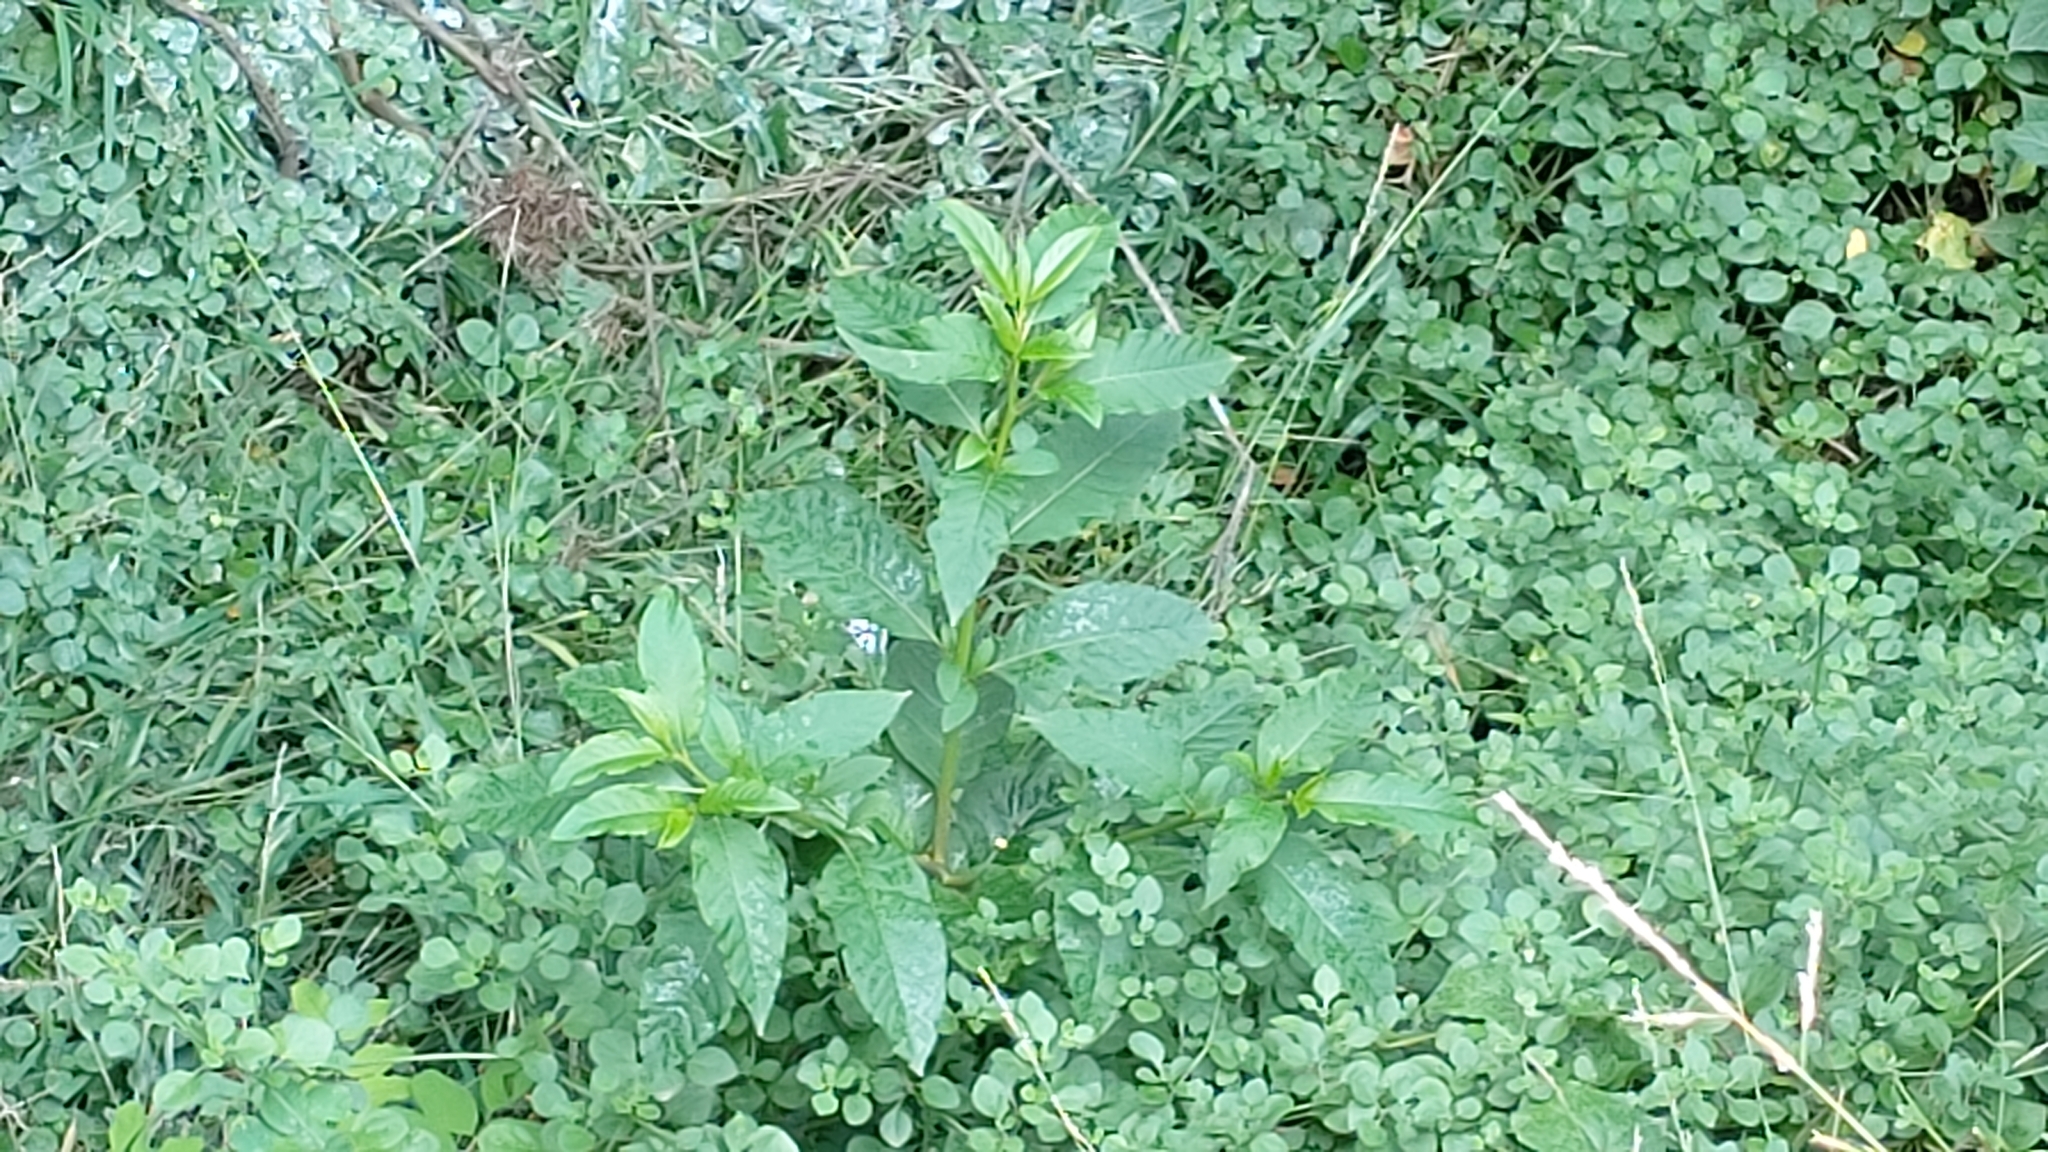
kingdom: Plantae
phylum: Tracheophyta
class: Magnoliopsida
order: Caryophyllales
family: Phytolaccaceae
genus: Phytolacca
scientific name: Phytolacca americana
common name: American pokeweed
